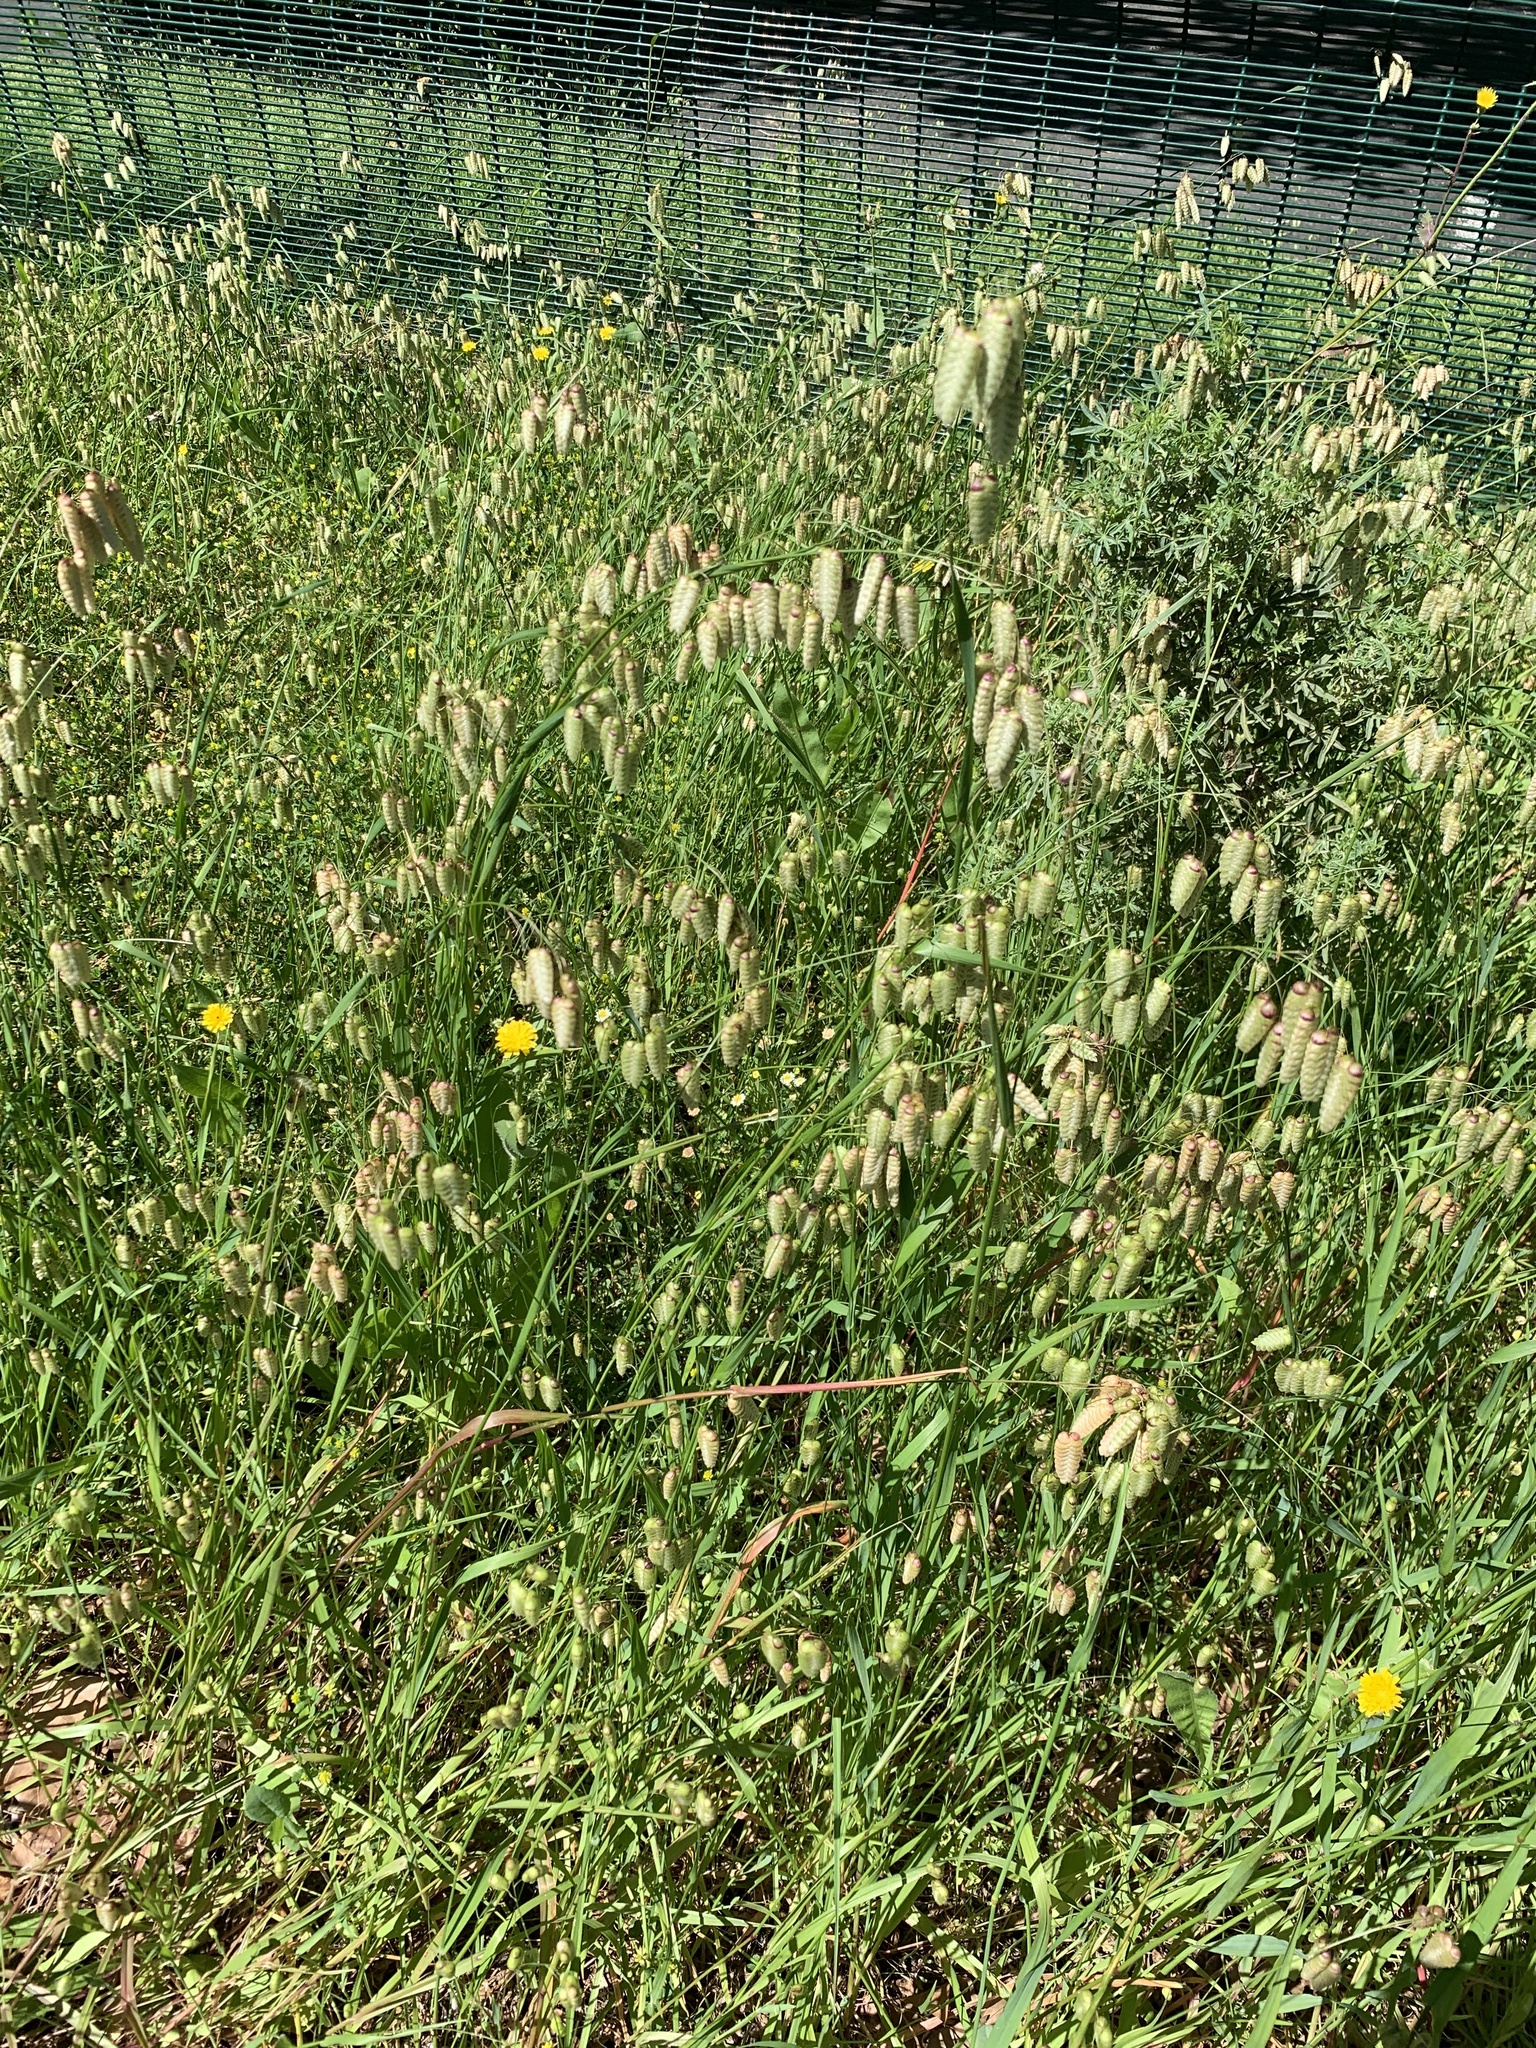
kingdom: Plantae
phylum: Tracheophyta
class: Liliopsida
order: Poales
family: Poaceae
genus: Briza
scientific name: Briza maxima
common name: Big quakinggrass
